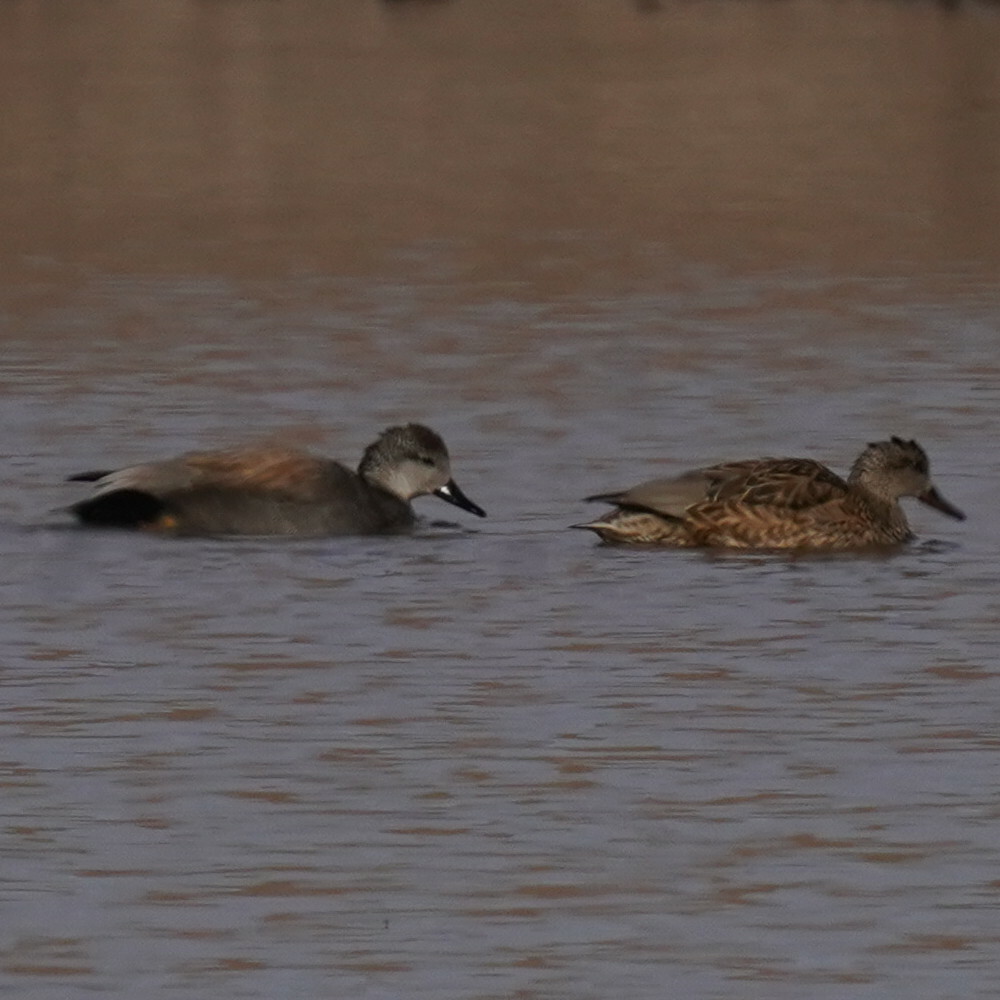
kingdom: Animalia
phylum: Chordata
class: Aves
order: Anseriformes
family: Anatidae
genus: Mareca
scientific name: Mareca strepera
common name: Gadwall
